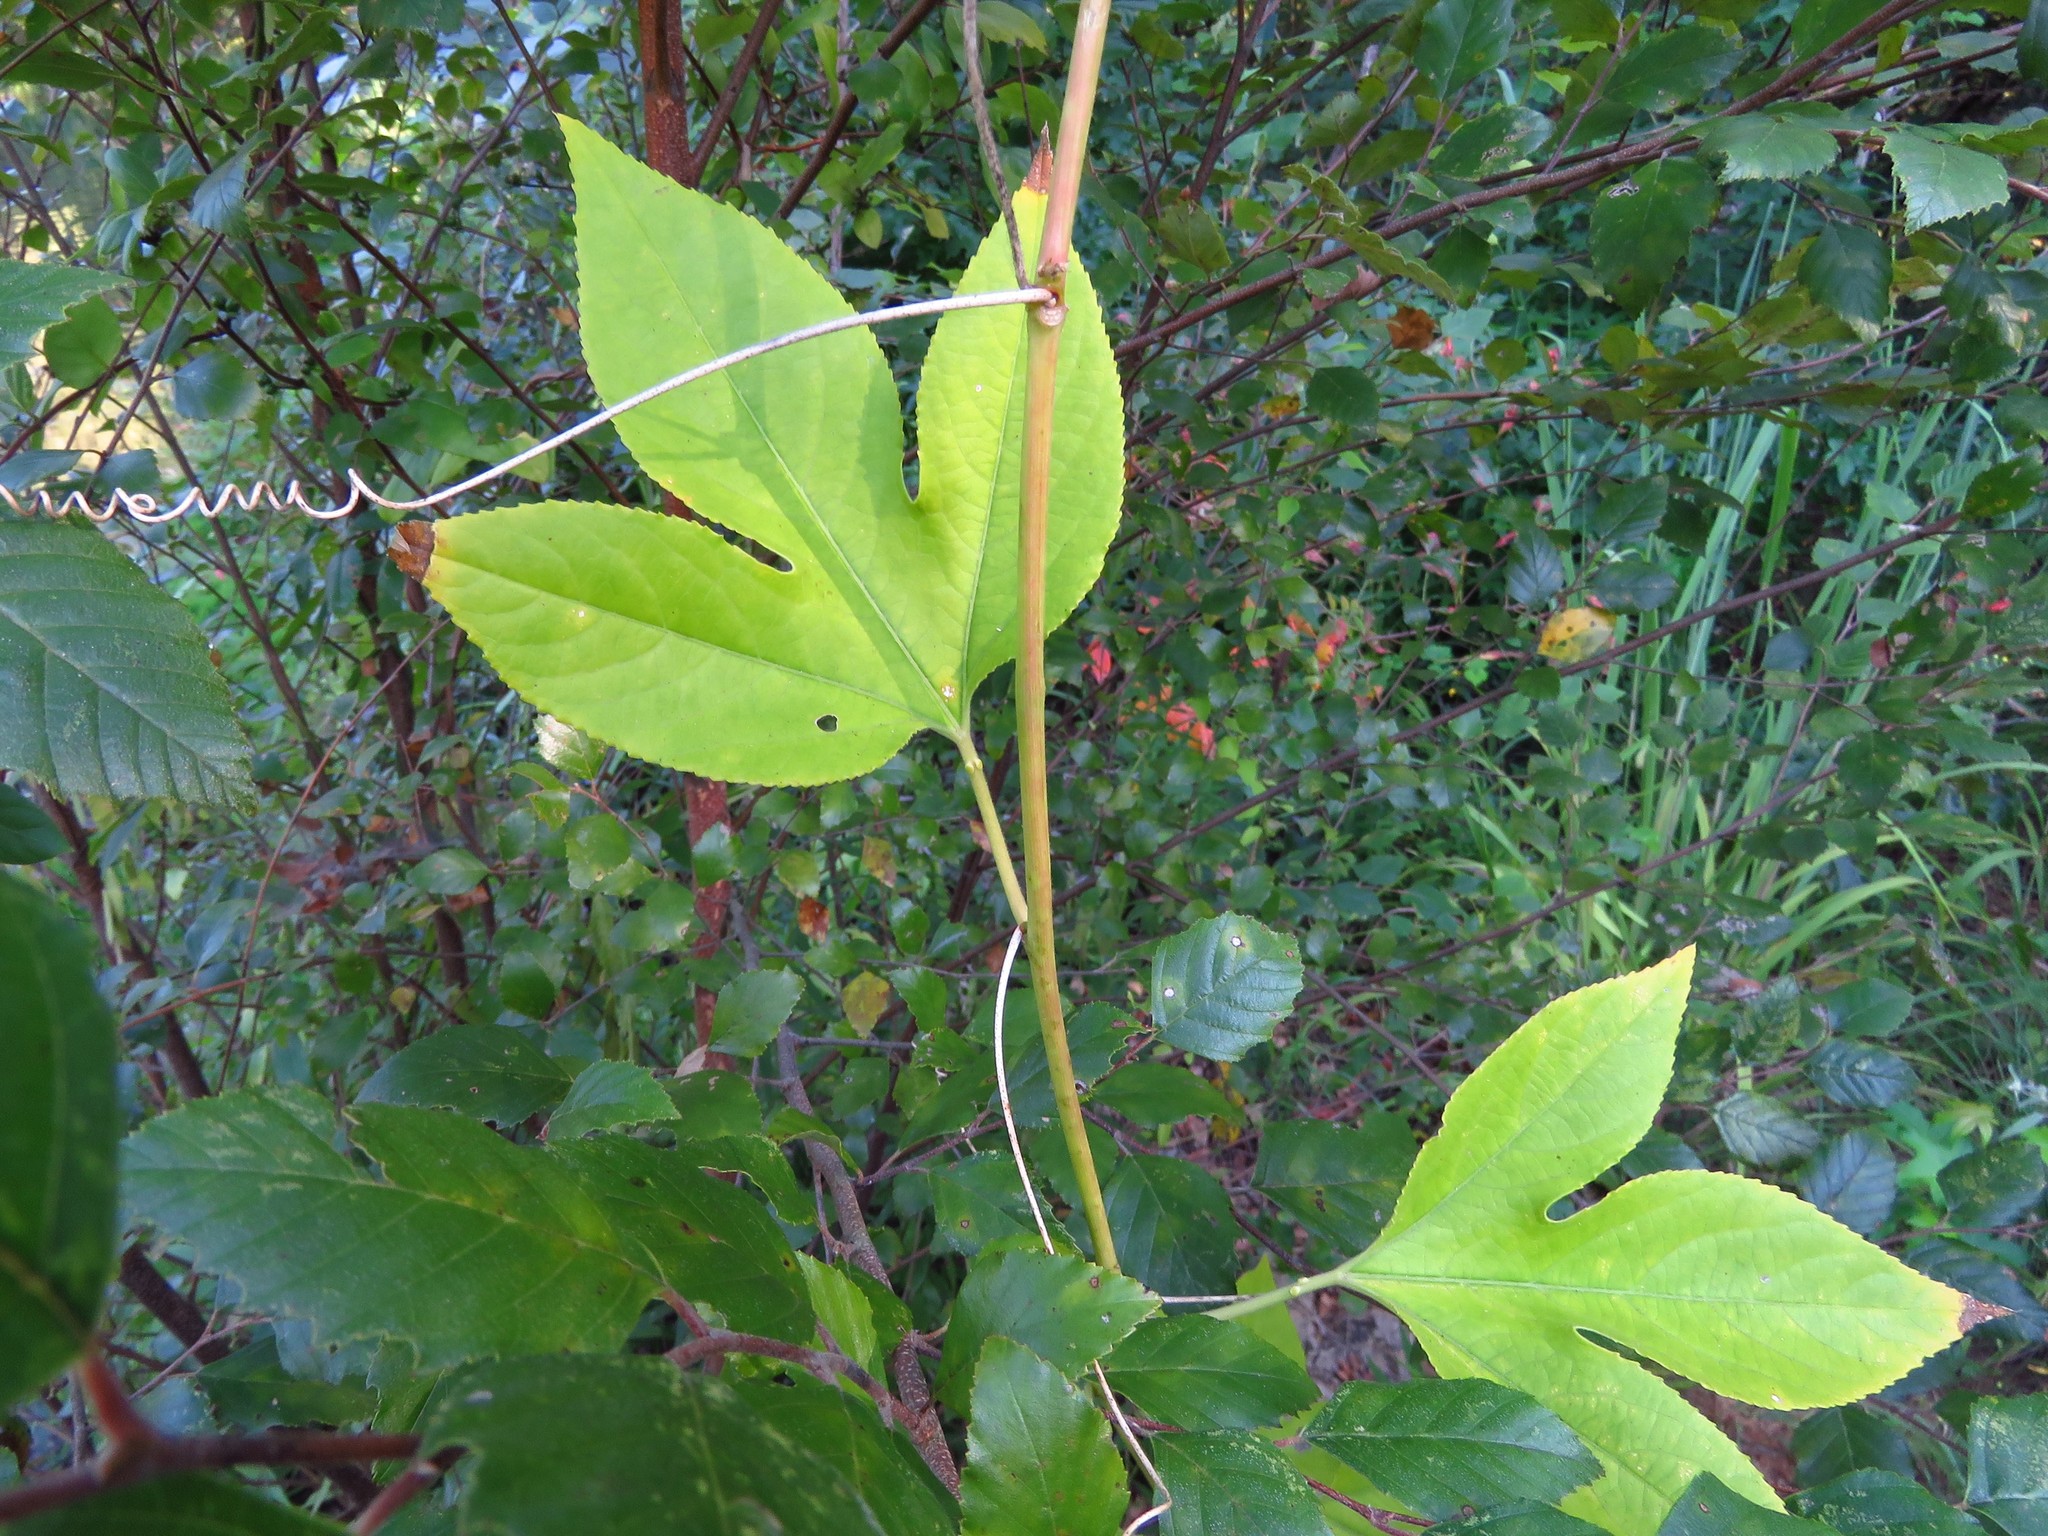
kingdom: Plantae
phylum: Tracheophyta
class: Magnoliopsida
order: Malpighiales
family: Passifloraceae
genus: Passiflora
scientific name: Passiflora incarnata
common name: Apricot-vine
